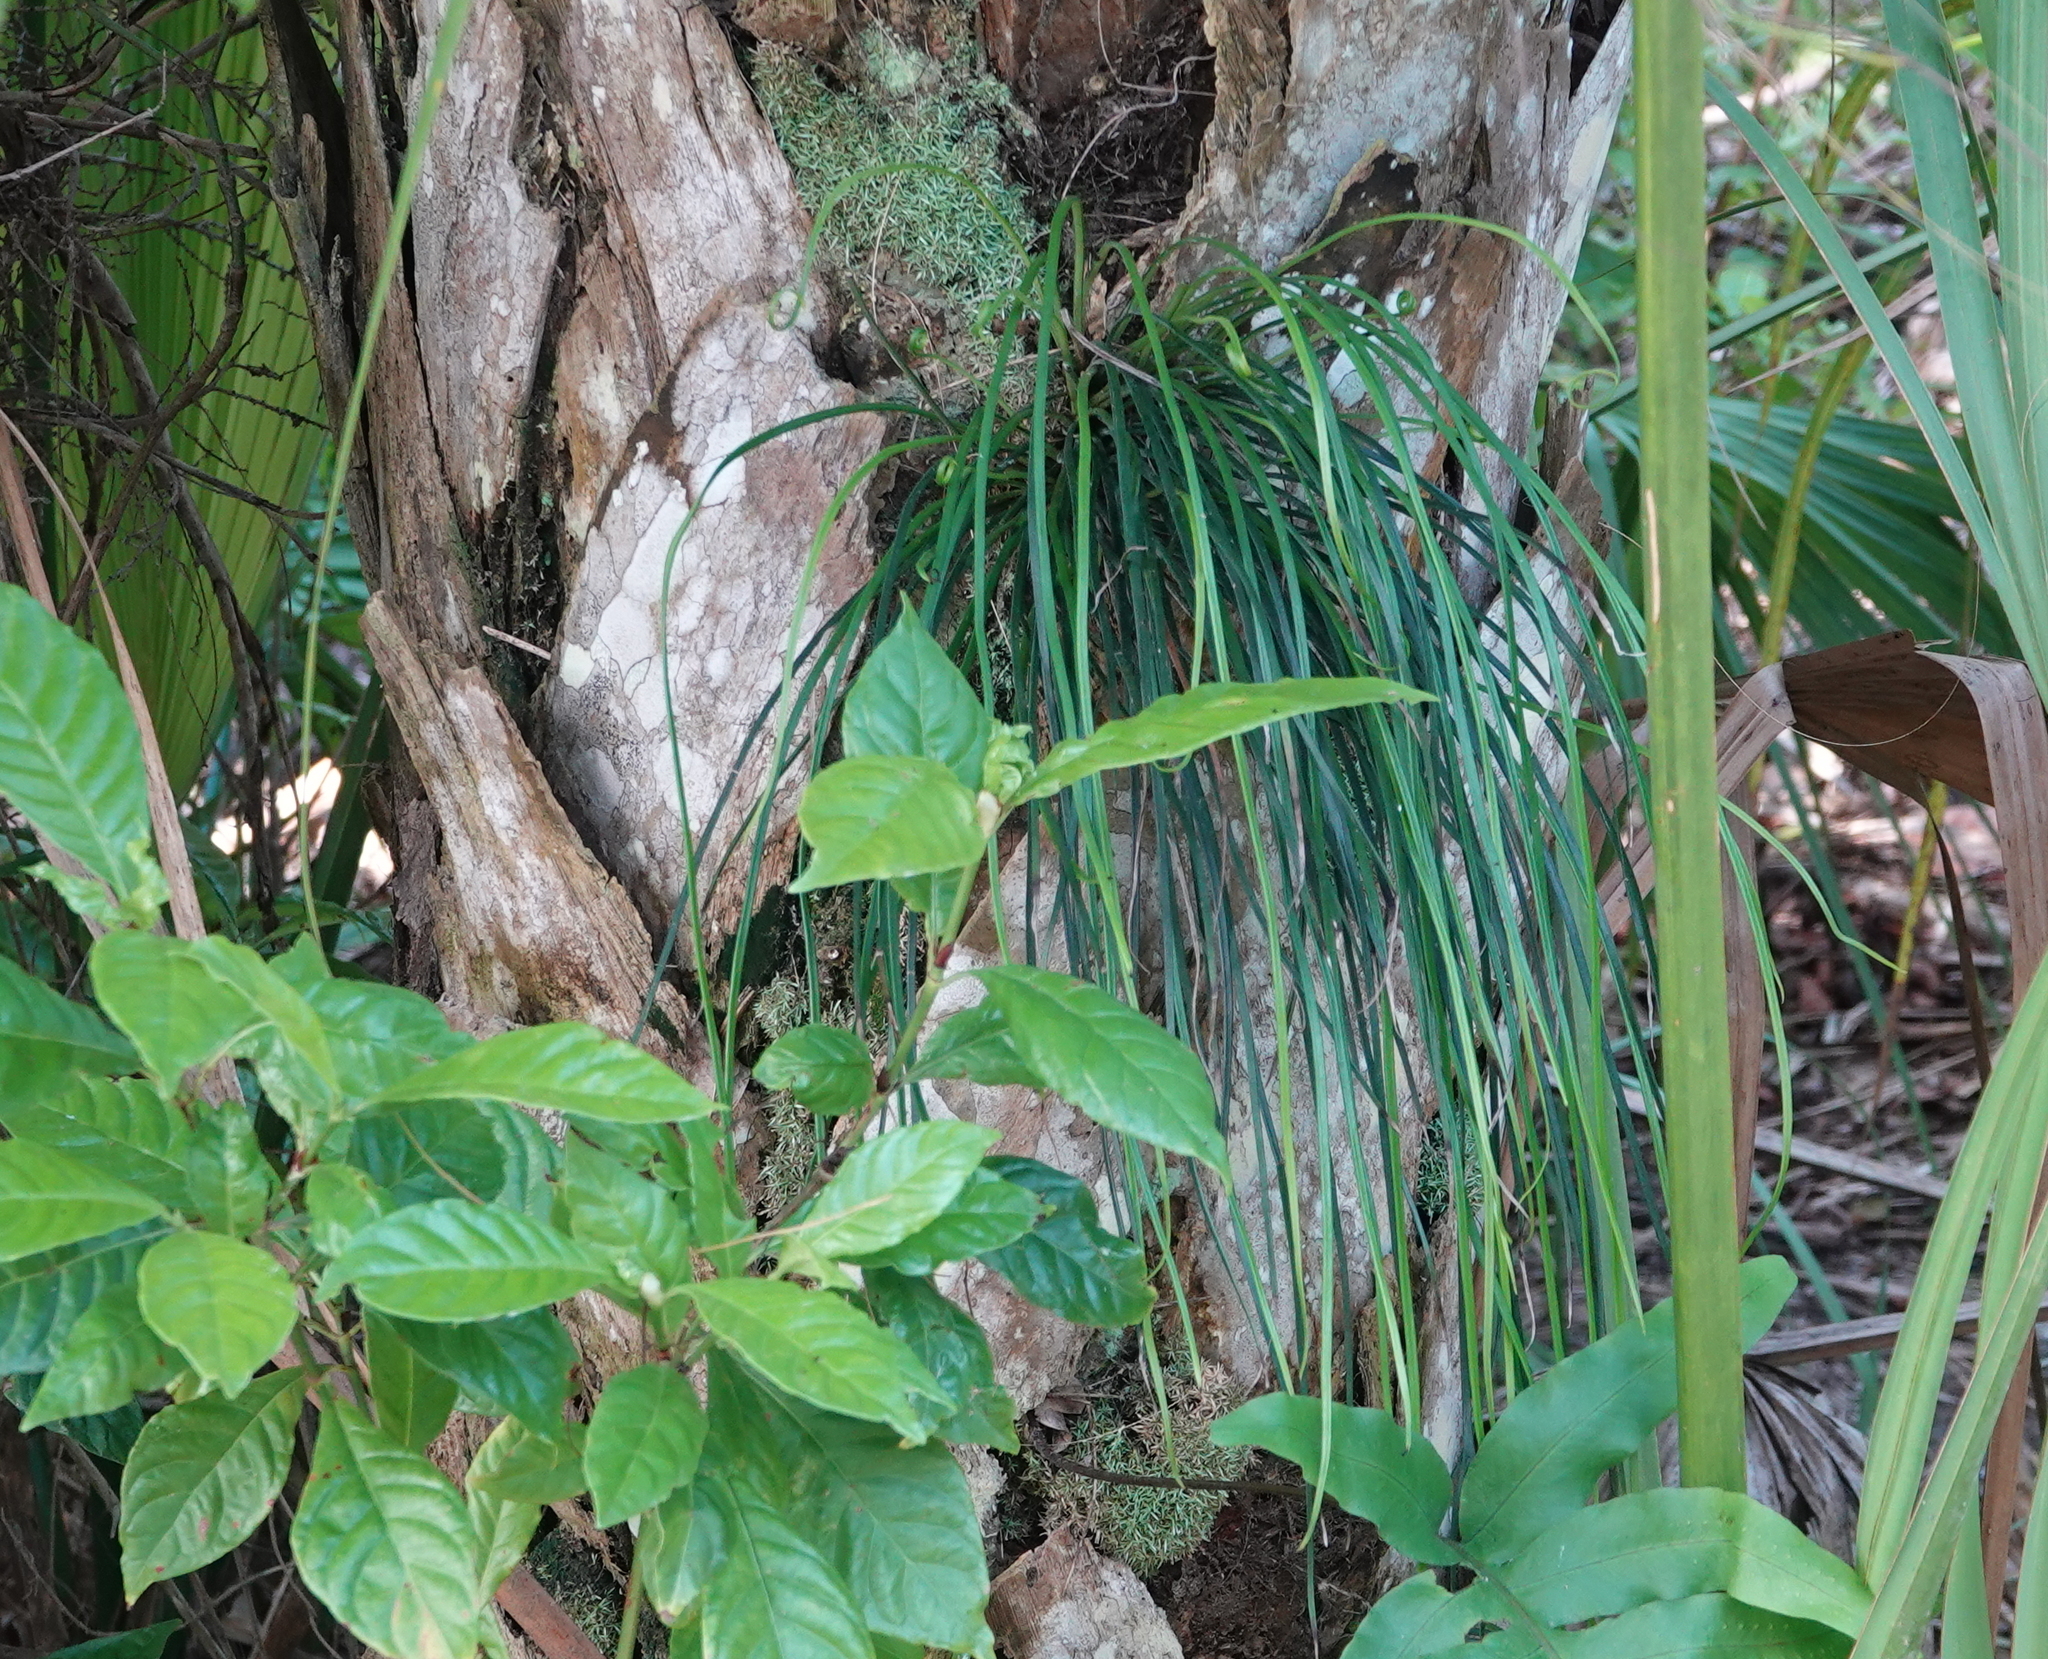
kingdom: Plantae
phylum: Tracheophyta
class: Polypodiopsida
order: Polypodiales
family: Pteridaceae
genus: Vittaria
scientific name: Vittaria lineata
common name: Shoestring fern
